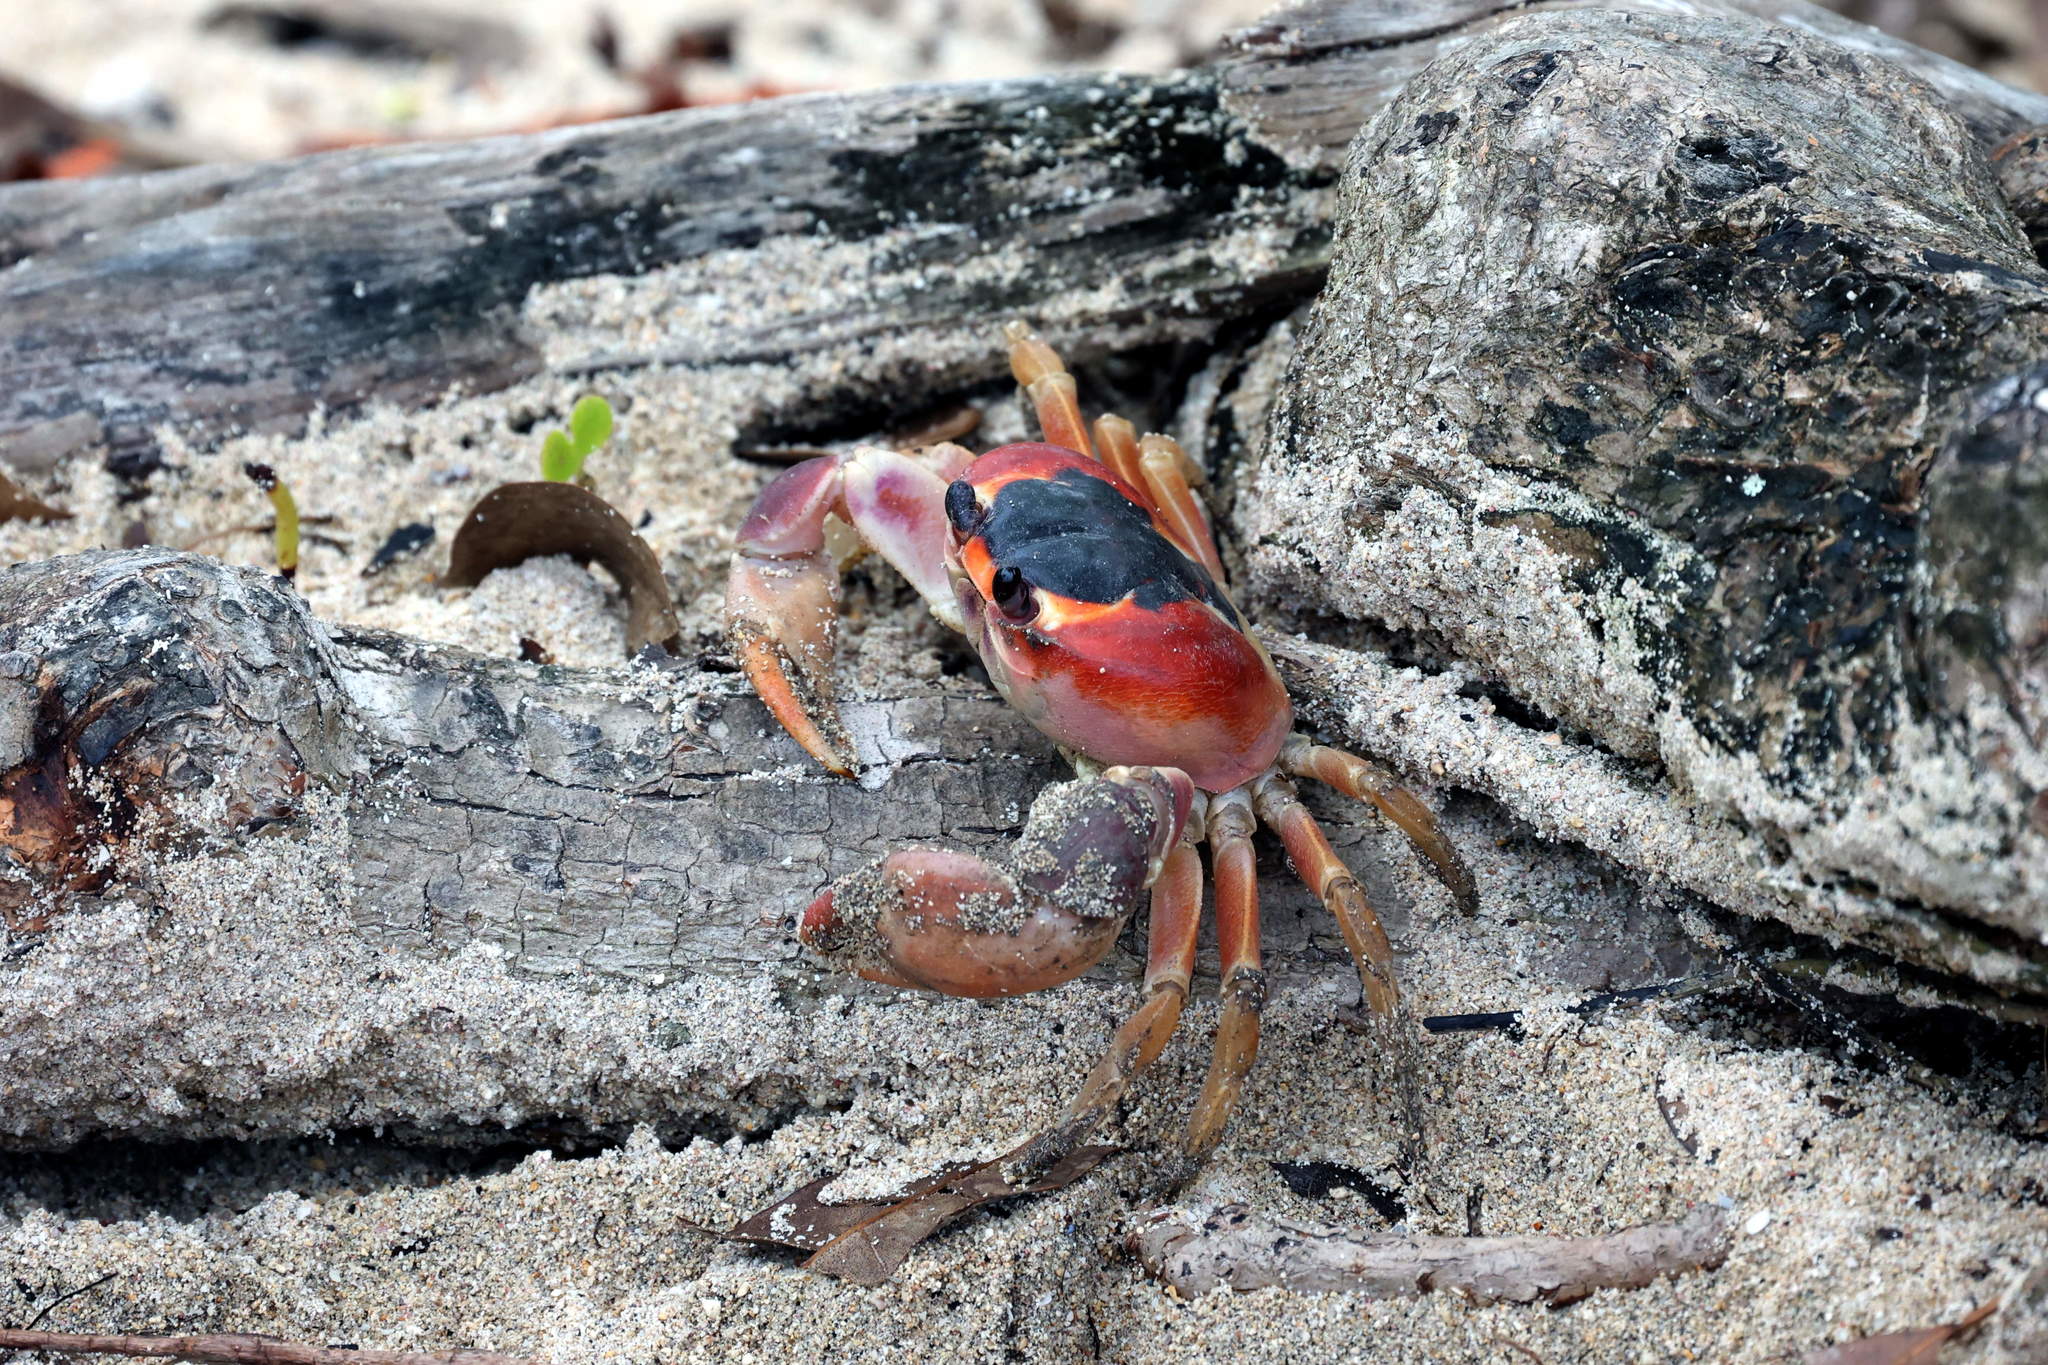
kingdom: Animalia
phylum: Arthropoda
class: Malacostraca
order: Decapoda
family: Gecarcinidae
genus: Gecarcinus
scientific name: Gecarcinus lateralis
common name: Bermuda land crab
